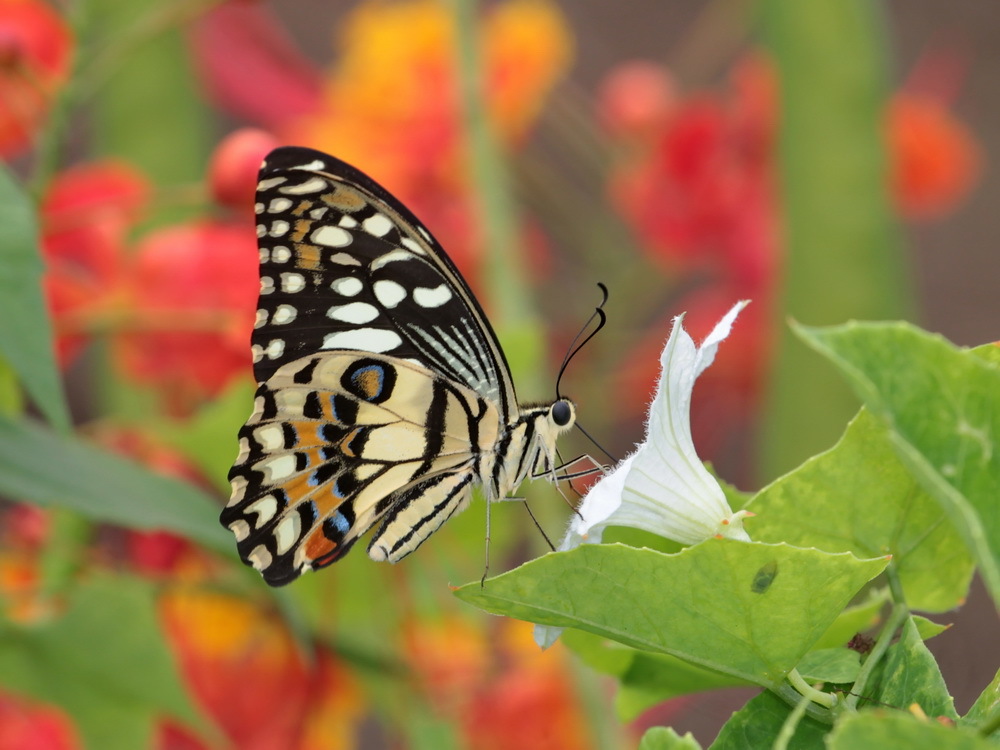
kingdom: Animalia
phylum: Arthropoda
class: Insecta
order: Lepidoptera
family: Papilionidae
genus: Papilio
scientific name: Papilio demoleus
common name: Lime butterfly
